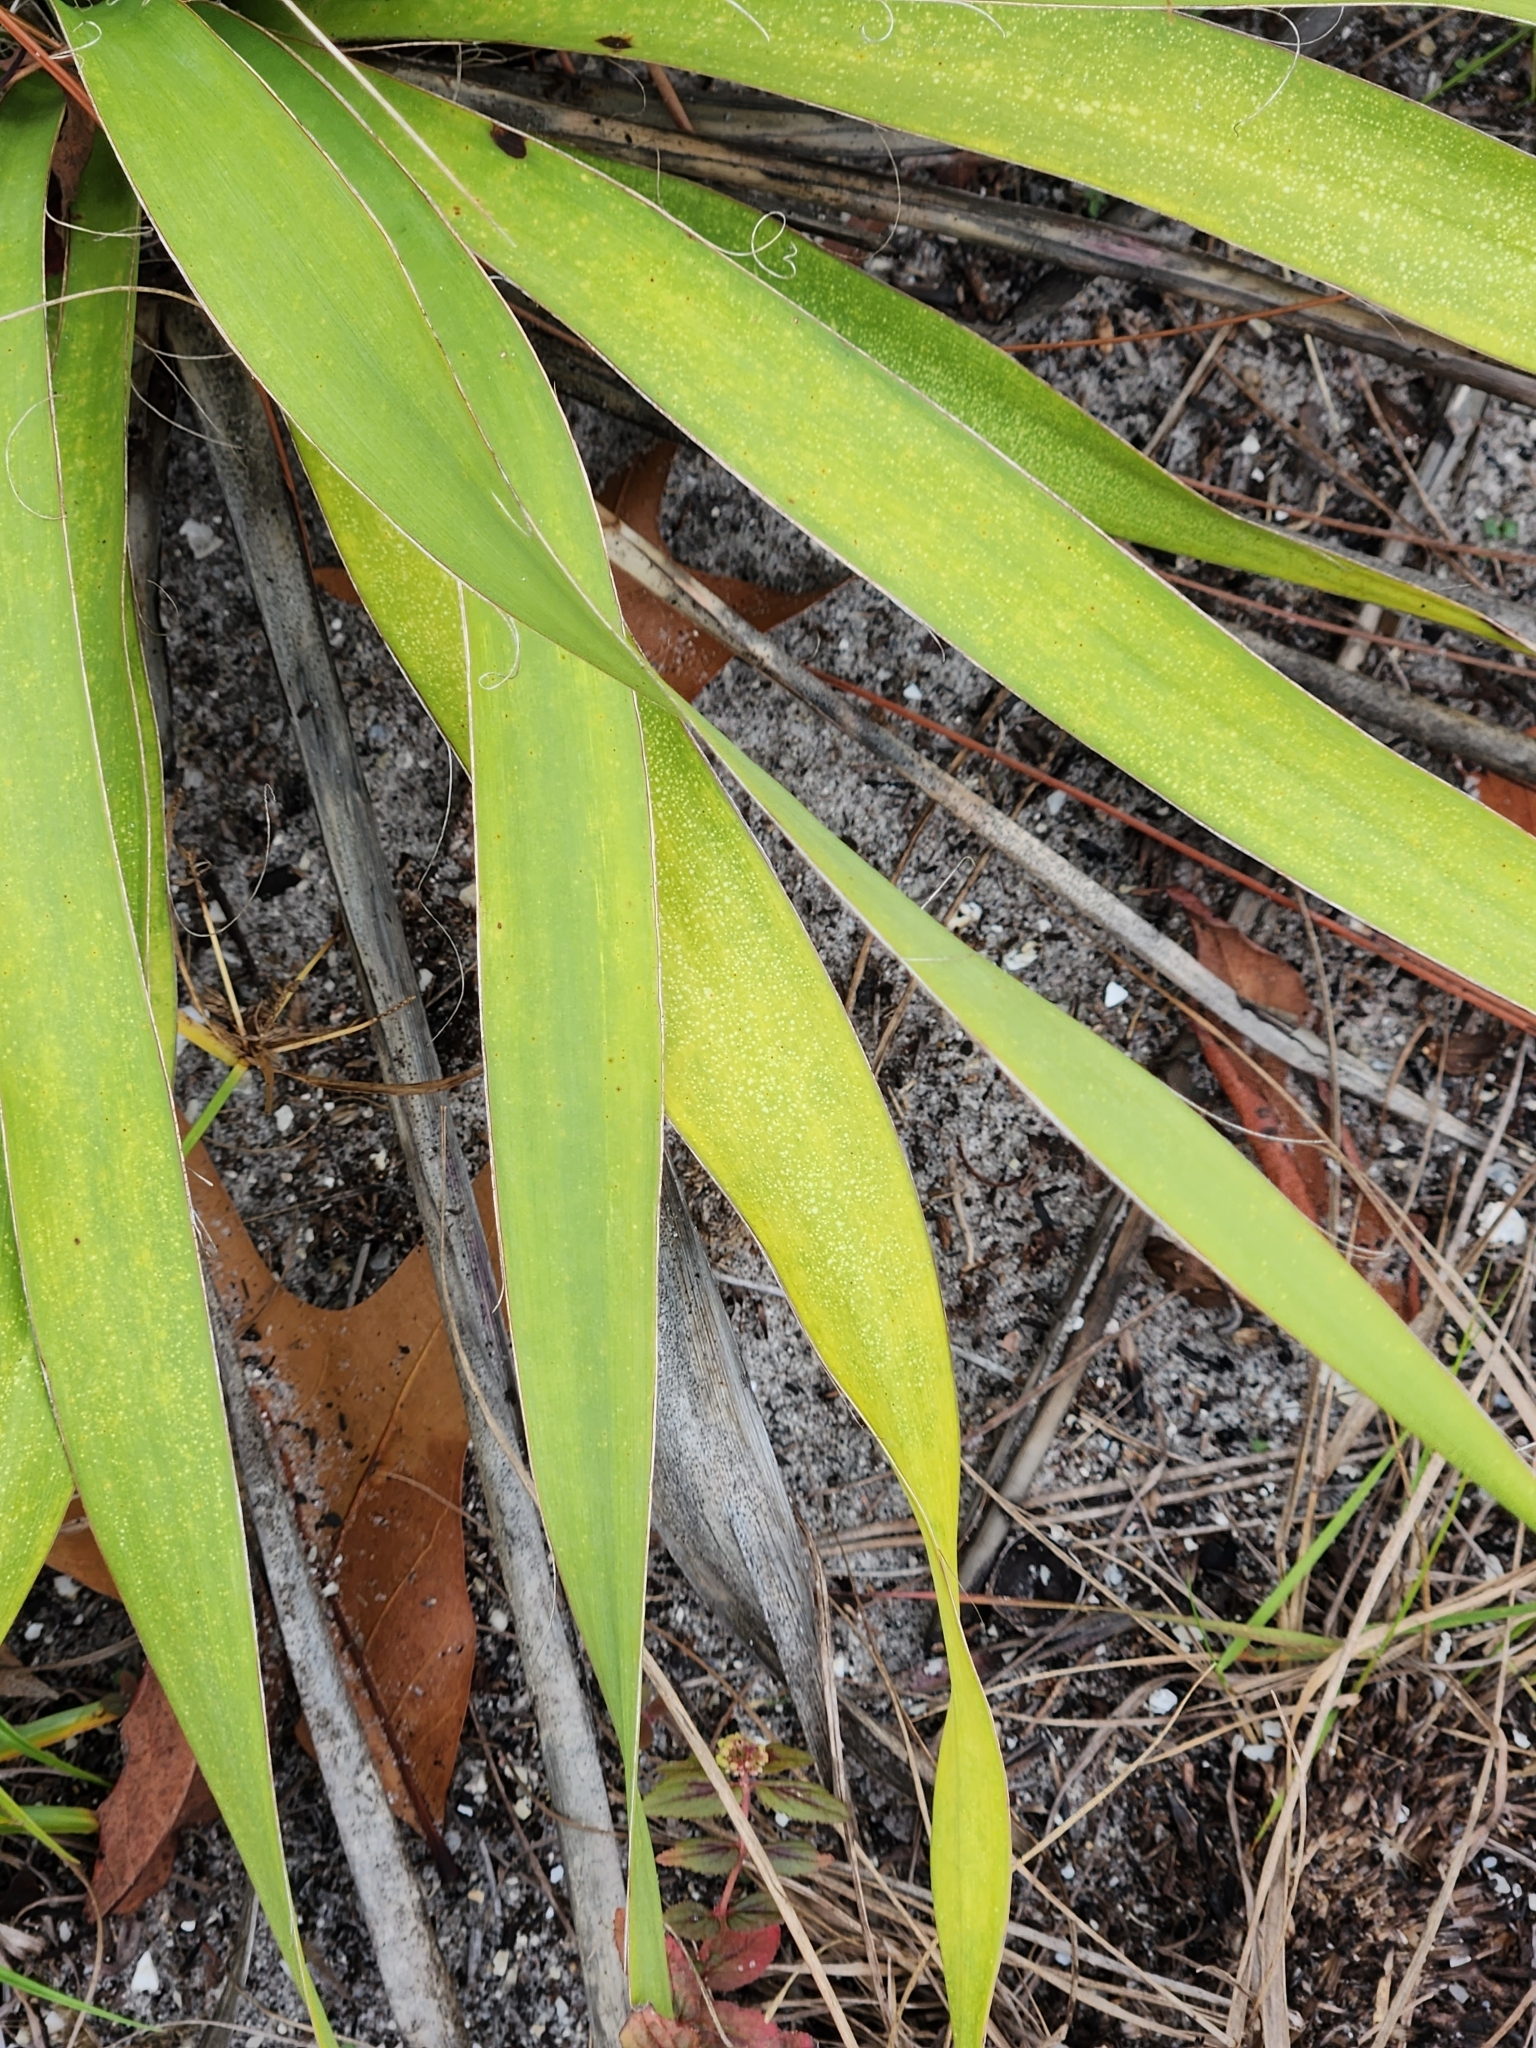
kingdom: Plantae
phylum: Tracheophyta
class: Liliopsida
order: Asparagales
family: Asparagaceae
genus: Yucca
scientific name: Yucca filamentosa
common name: Adam's-needle
